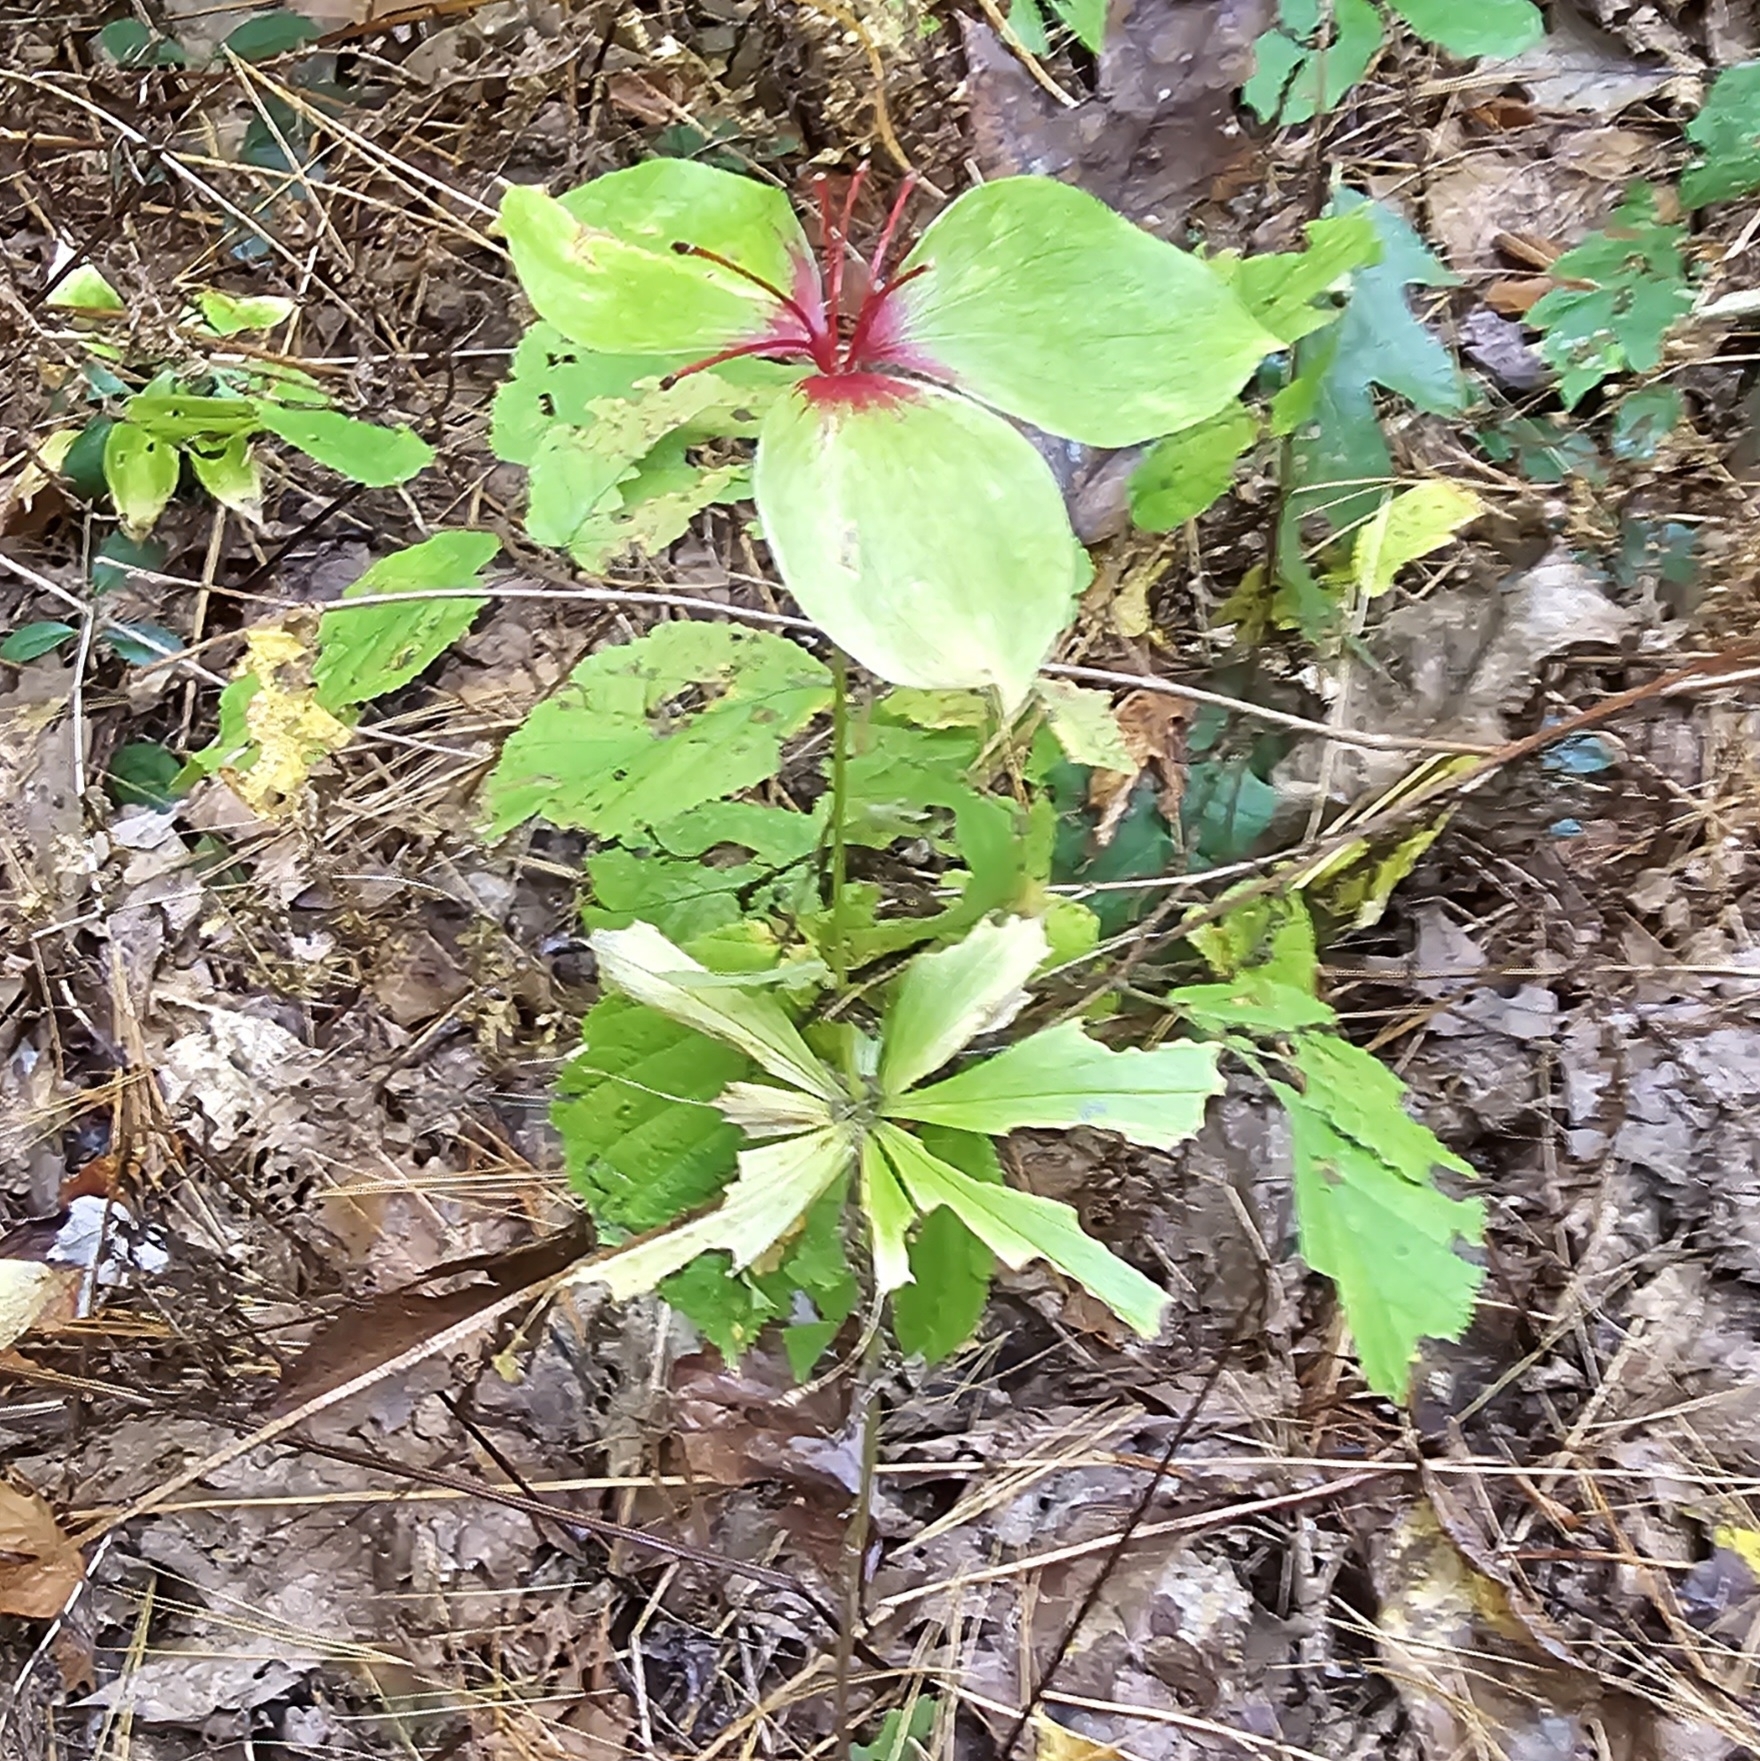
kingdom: Plantae
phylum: Tracheophyta
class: Liliopsida
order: Liliales
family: Liliaceae
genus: Medeola
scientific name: Medeola virginiana
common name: Indian cucumber-root
